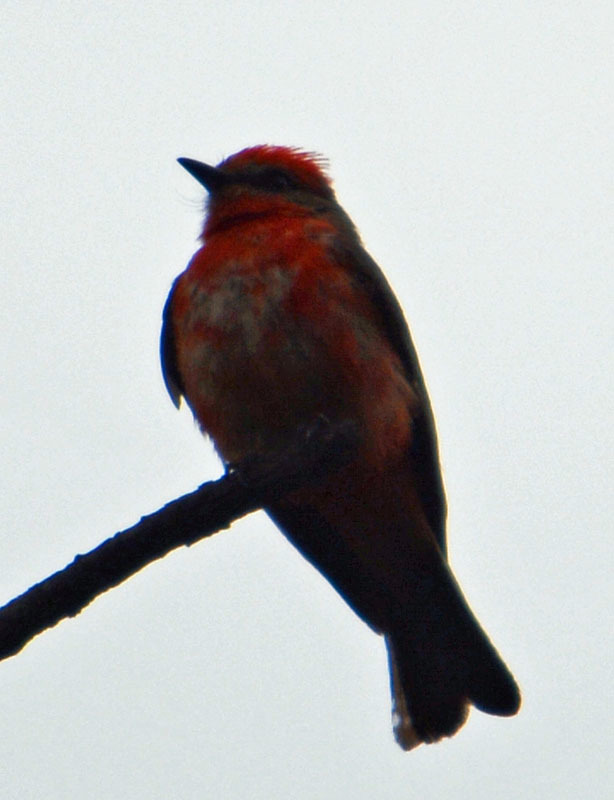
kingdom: Animalia
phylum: Chordata
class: Aves
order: Passeriformes
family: Tyrannidae
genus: Pyrocephalus
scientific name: Pyrocephalus rubinus
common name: Vermilion flycatcher
